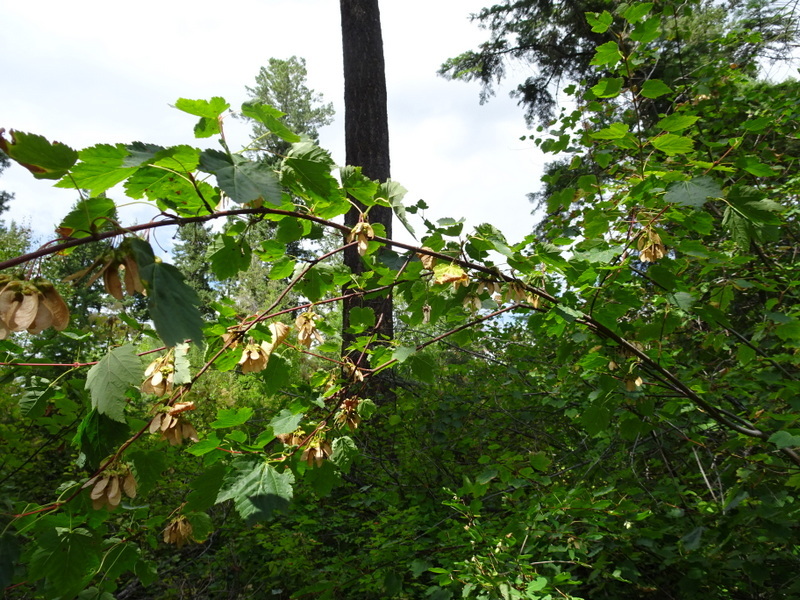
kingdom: Plantae
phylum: Tracheophyta
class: Magnoliopsida
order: Sapindales
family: Sapindaceae
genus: Acer
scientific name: Acer glabrum
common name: Rocky mountain maple
